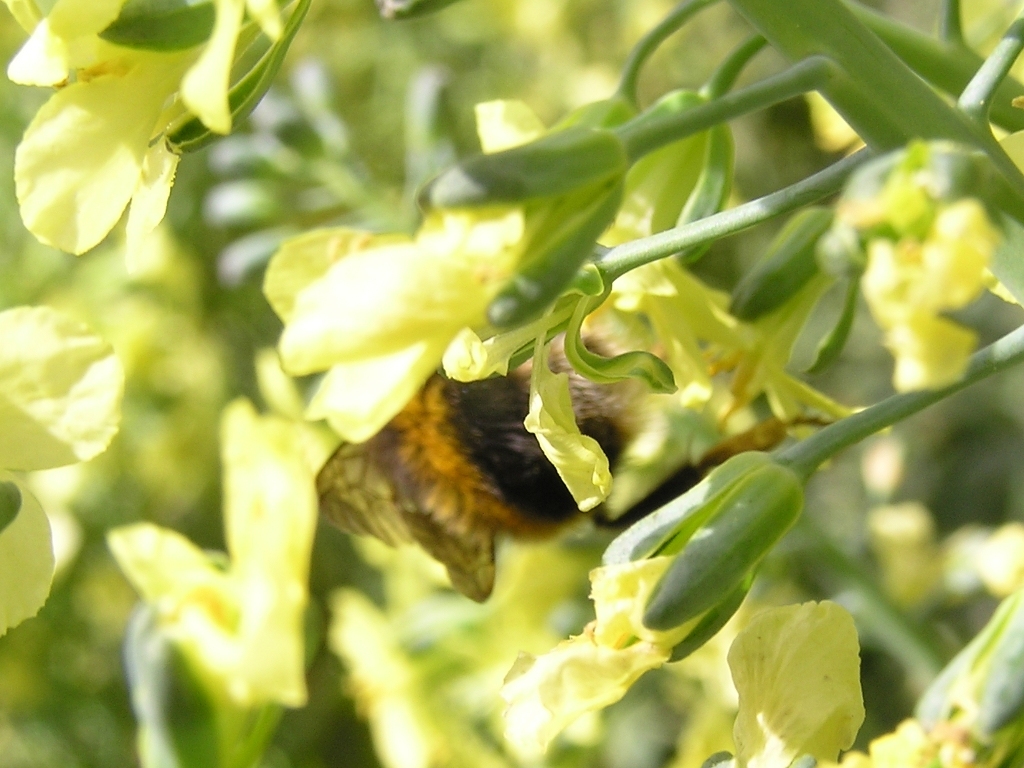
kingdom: Animalia
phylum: Arthropoda
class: Insecta
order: Hymenoptera
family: Apidae
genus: Bombus
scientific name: Bombus terrestris
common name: Buff-tailed bumblebee
